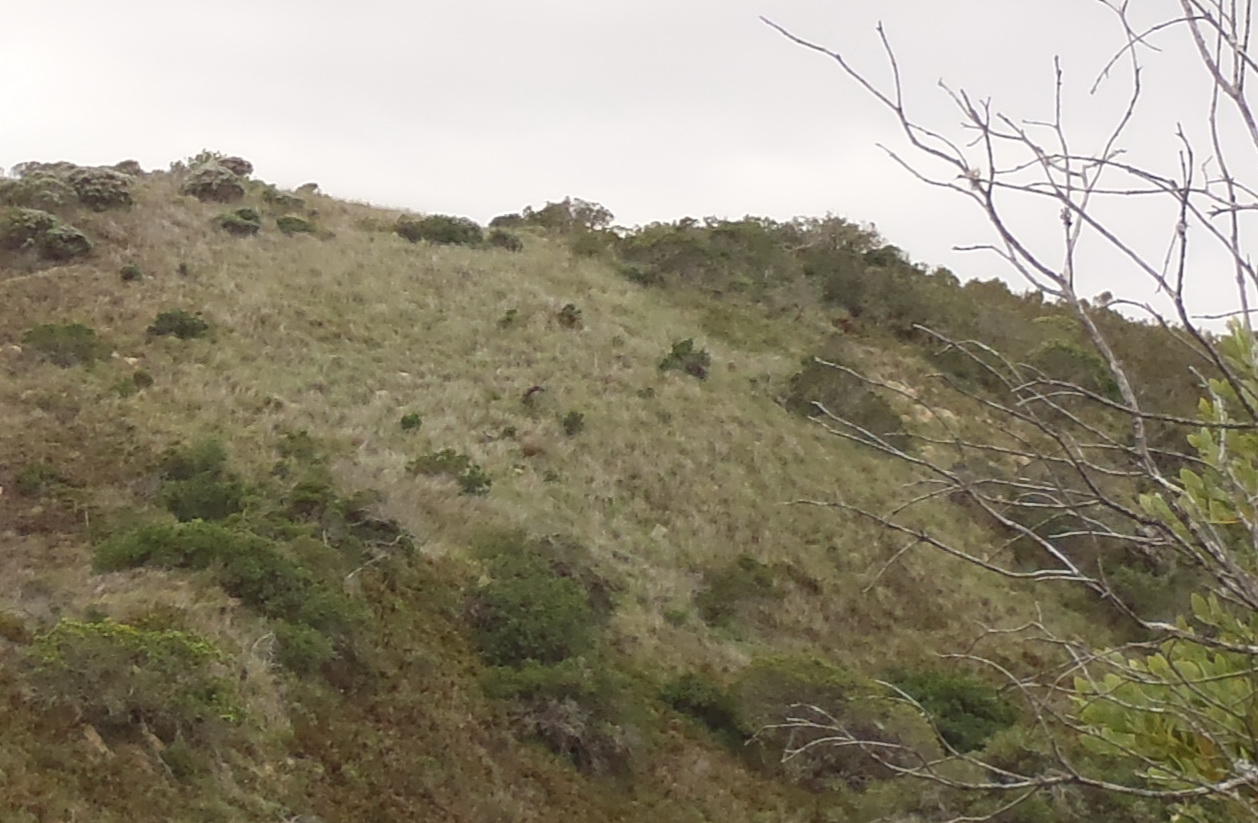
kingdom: Plantae
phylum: Tracheophyta
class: Liliopsida
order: Poales
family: Poaceae
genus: Pentameris
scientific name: Pentameris barbata
